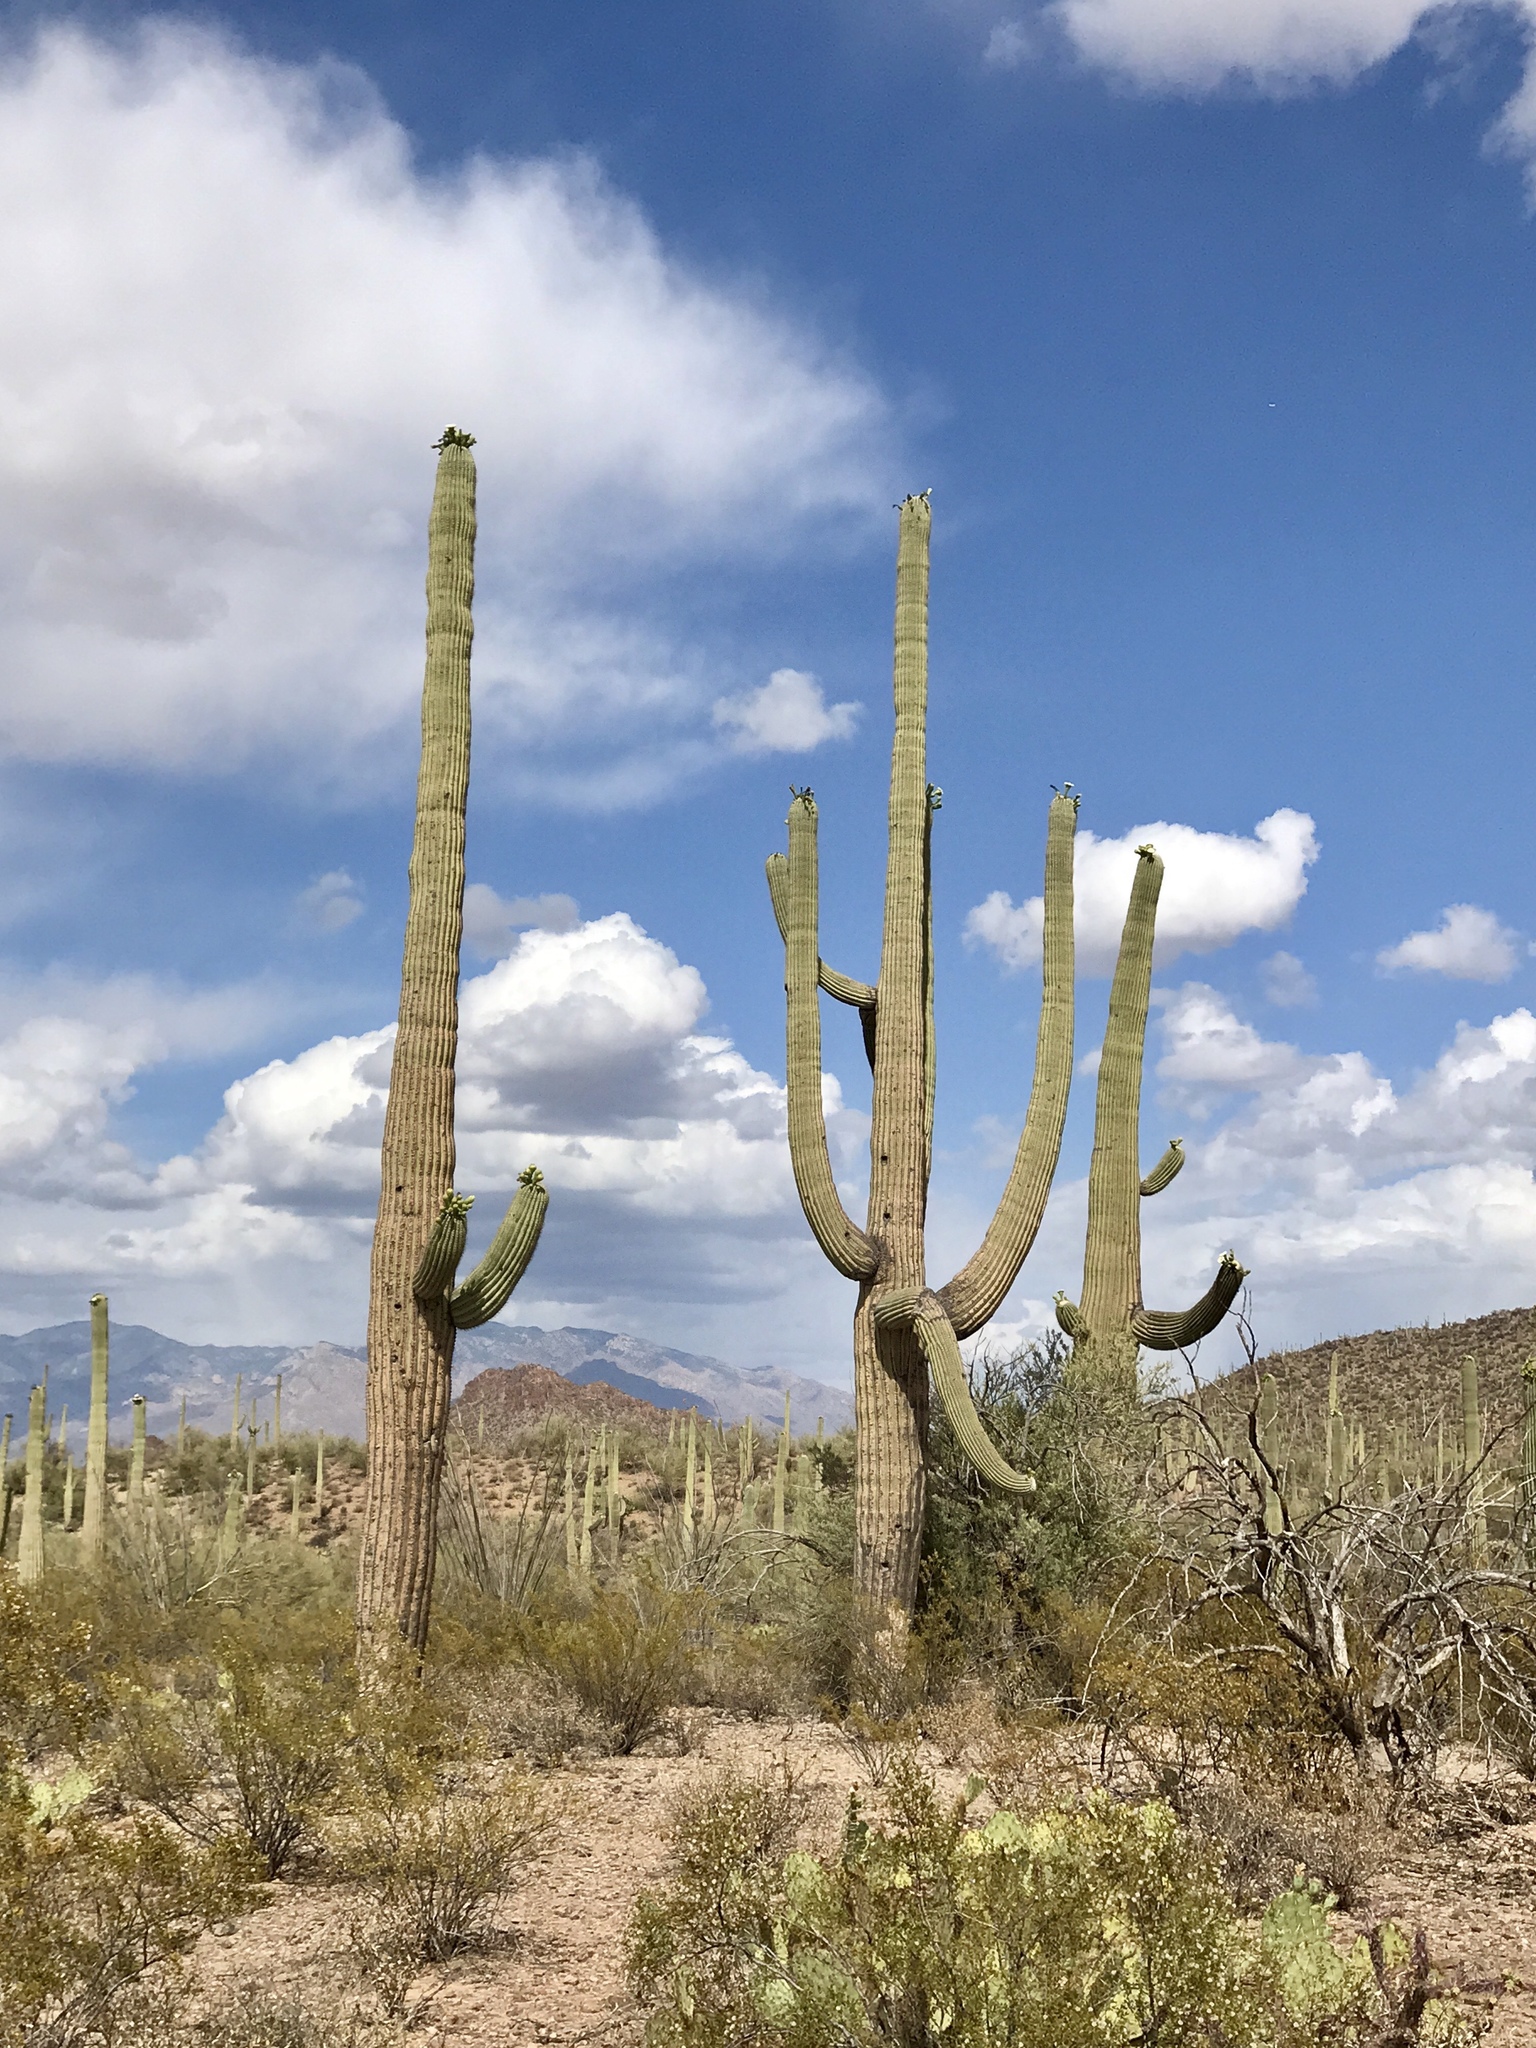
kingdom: Plantae
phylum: Tracheophyta
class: Magnoliopsida
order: Caryophyllales
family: Cactaceae
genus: Carnegiea
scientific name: Carnegiea gigantea
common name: Saguaro
